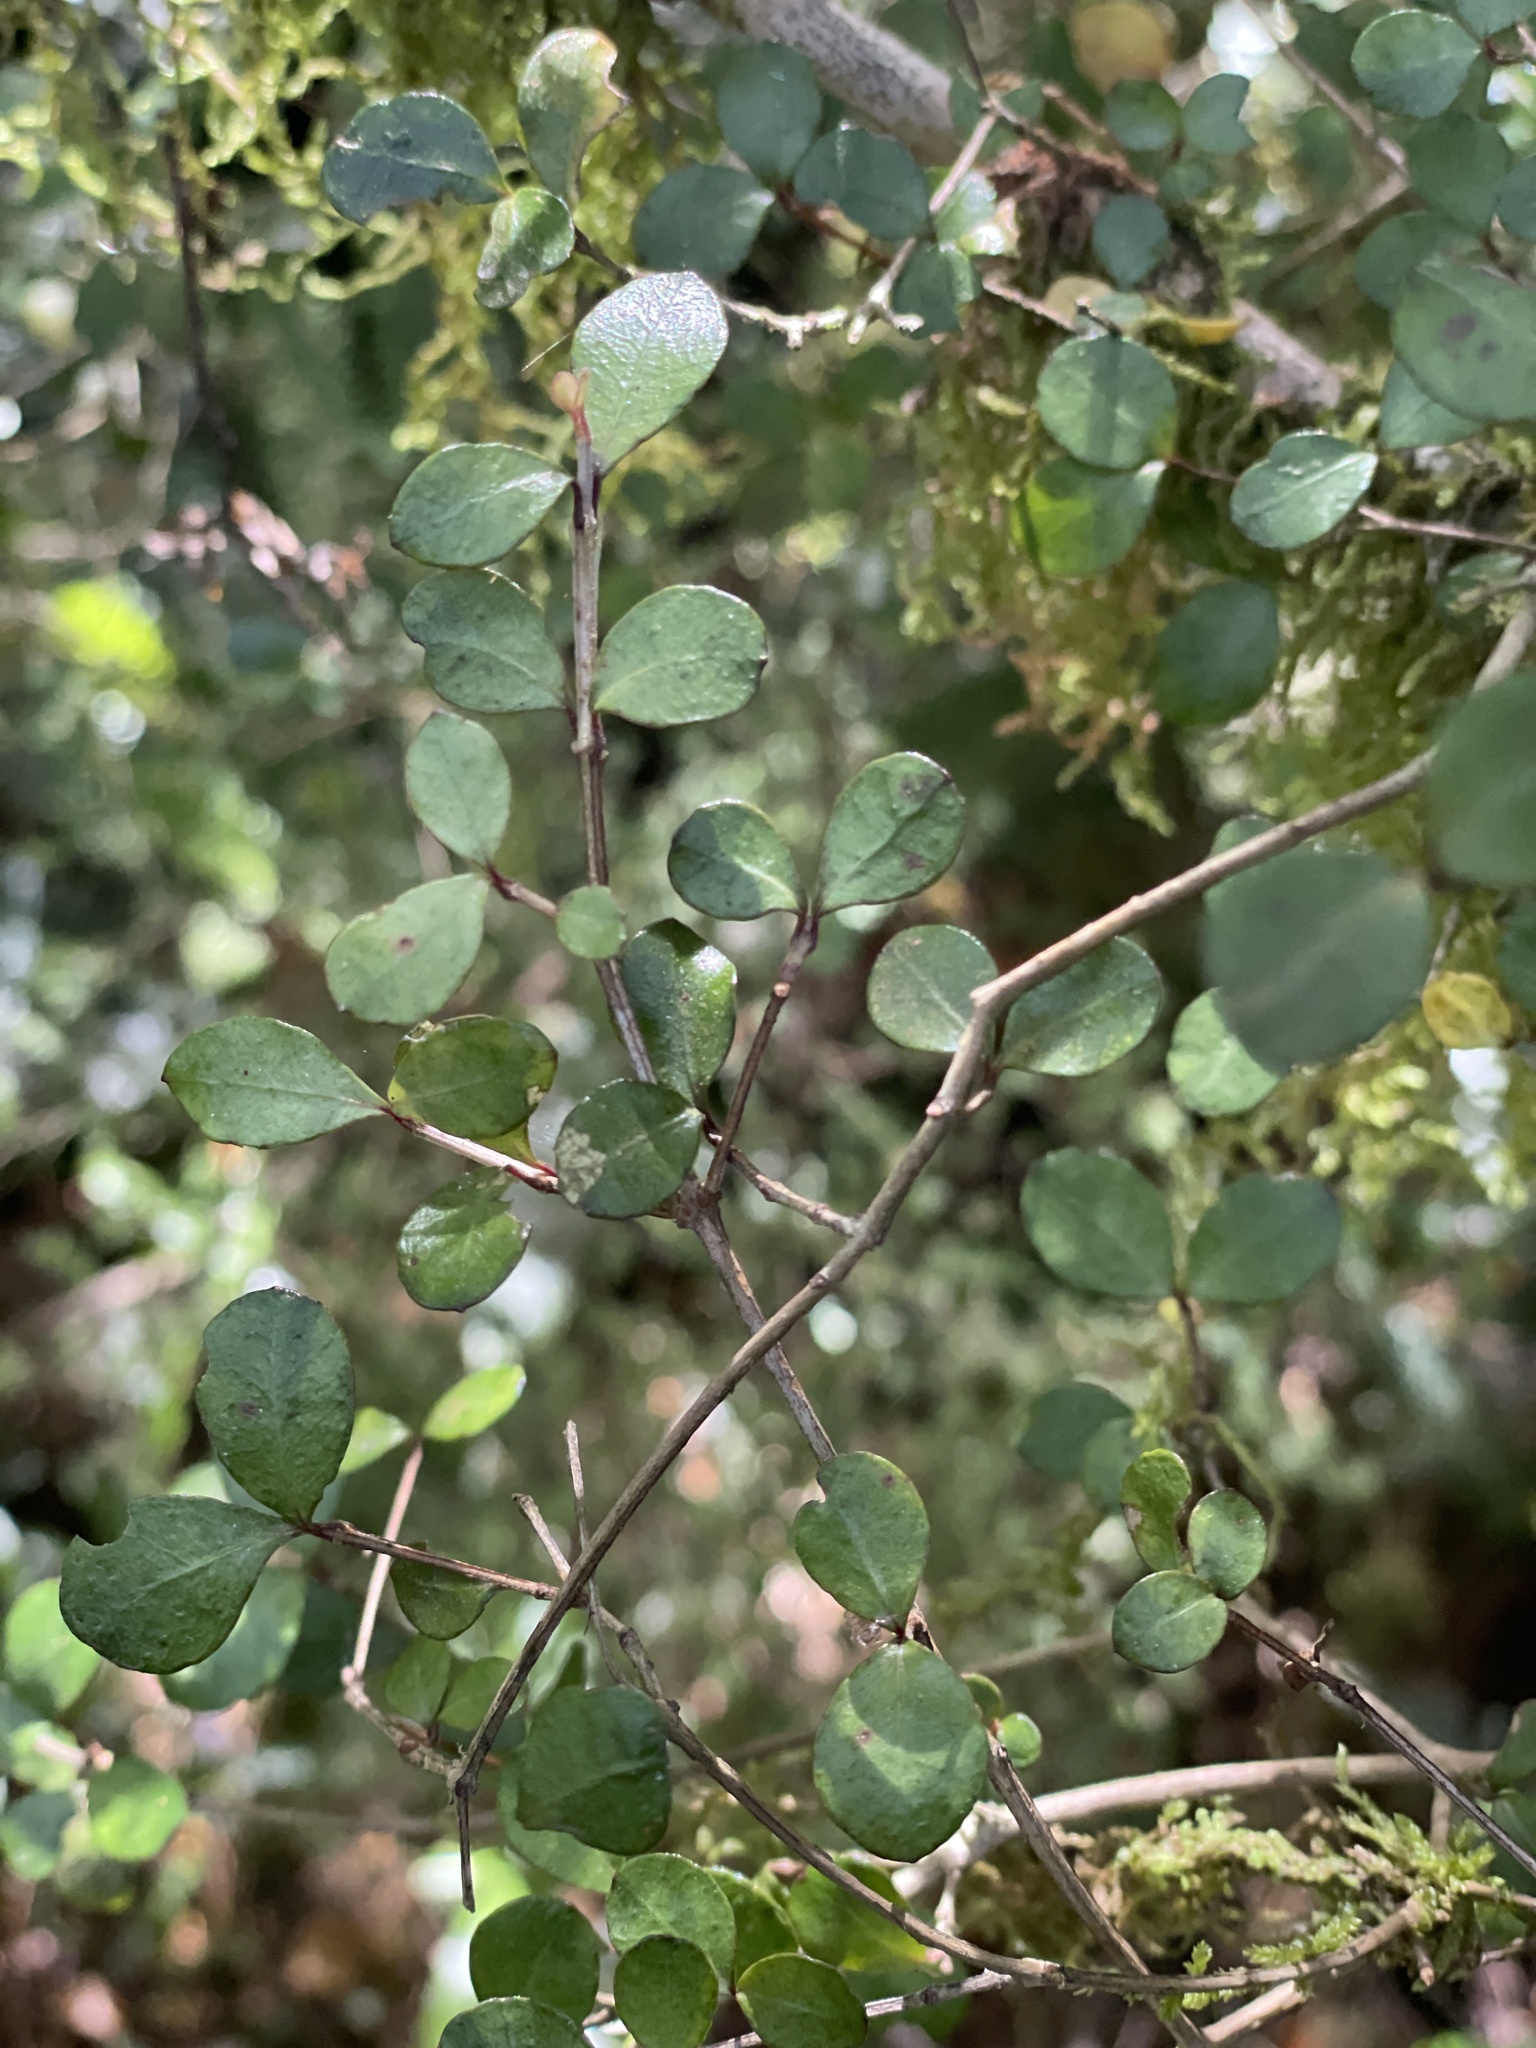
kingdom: Plantae
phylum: Tracheophyta
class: Magnoliopsida
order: Myrtales
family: Myrtaceae
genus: Neomyrtus
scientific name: Neomyrtus pedunculata
